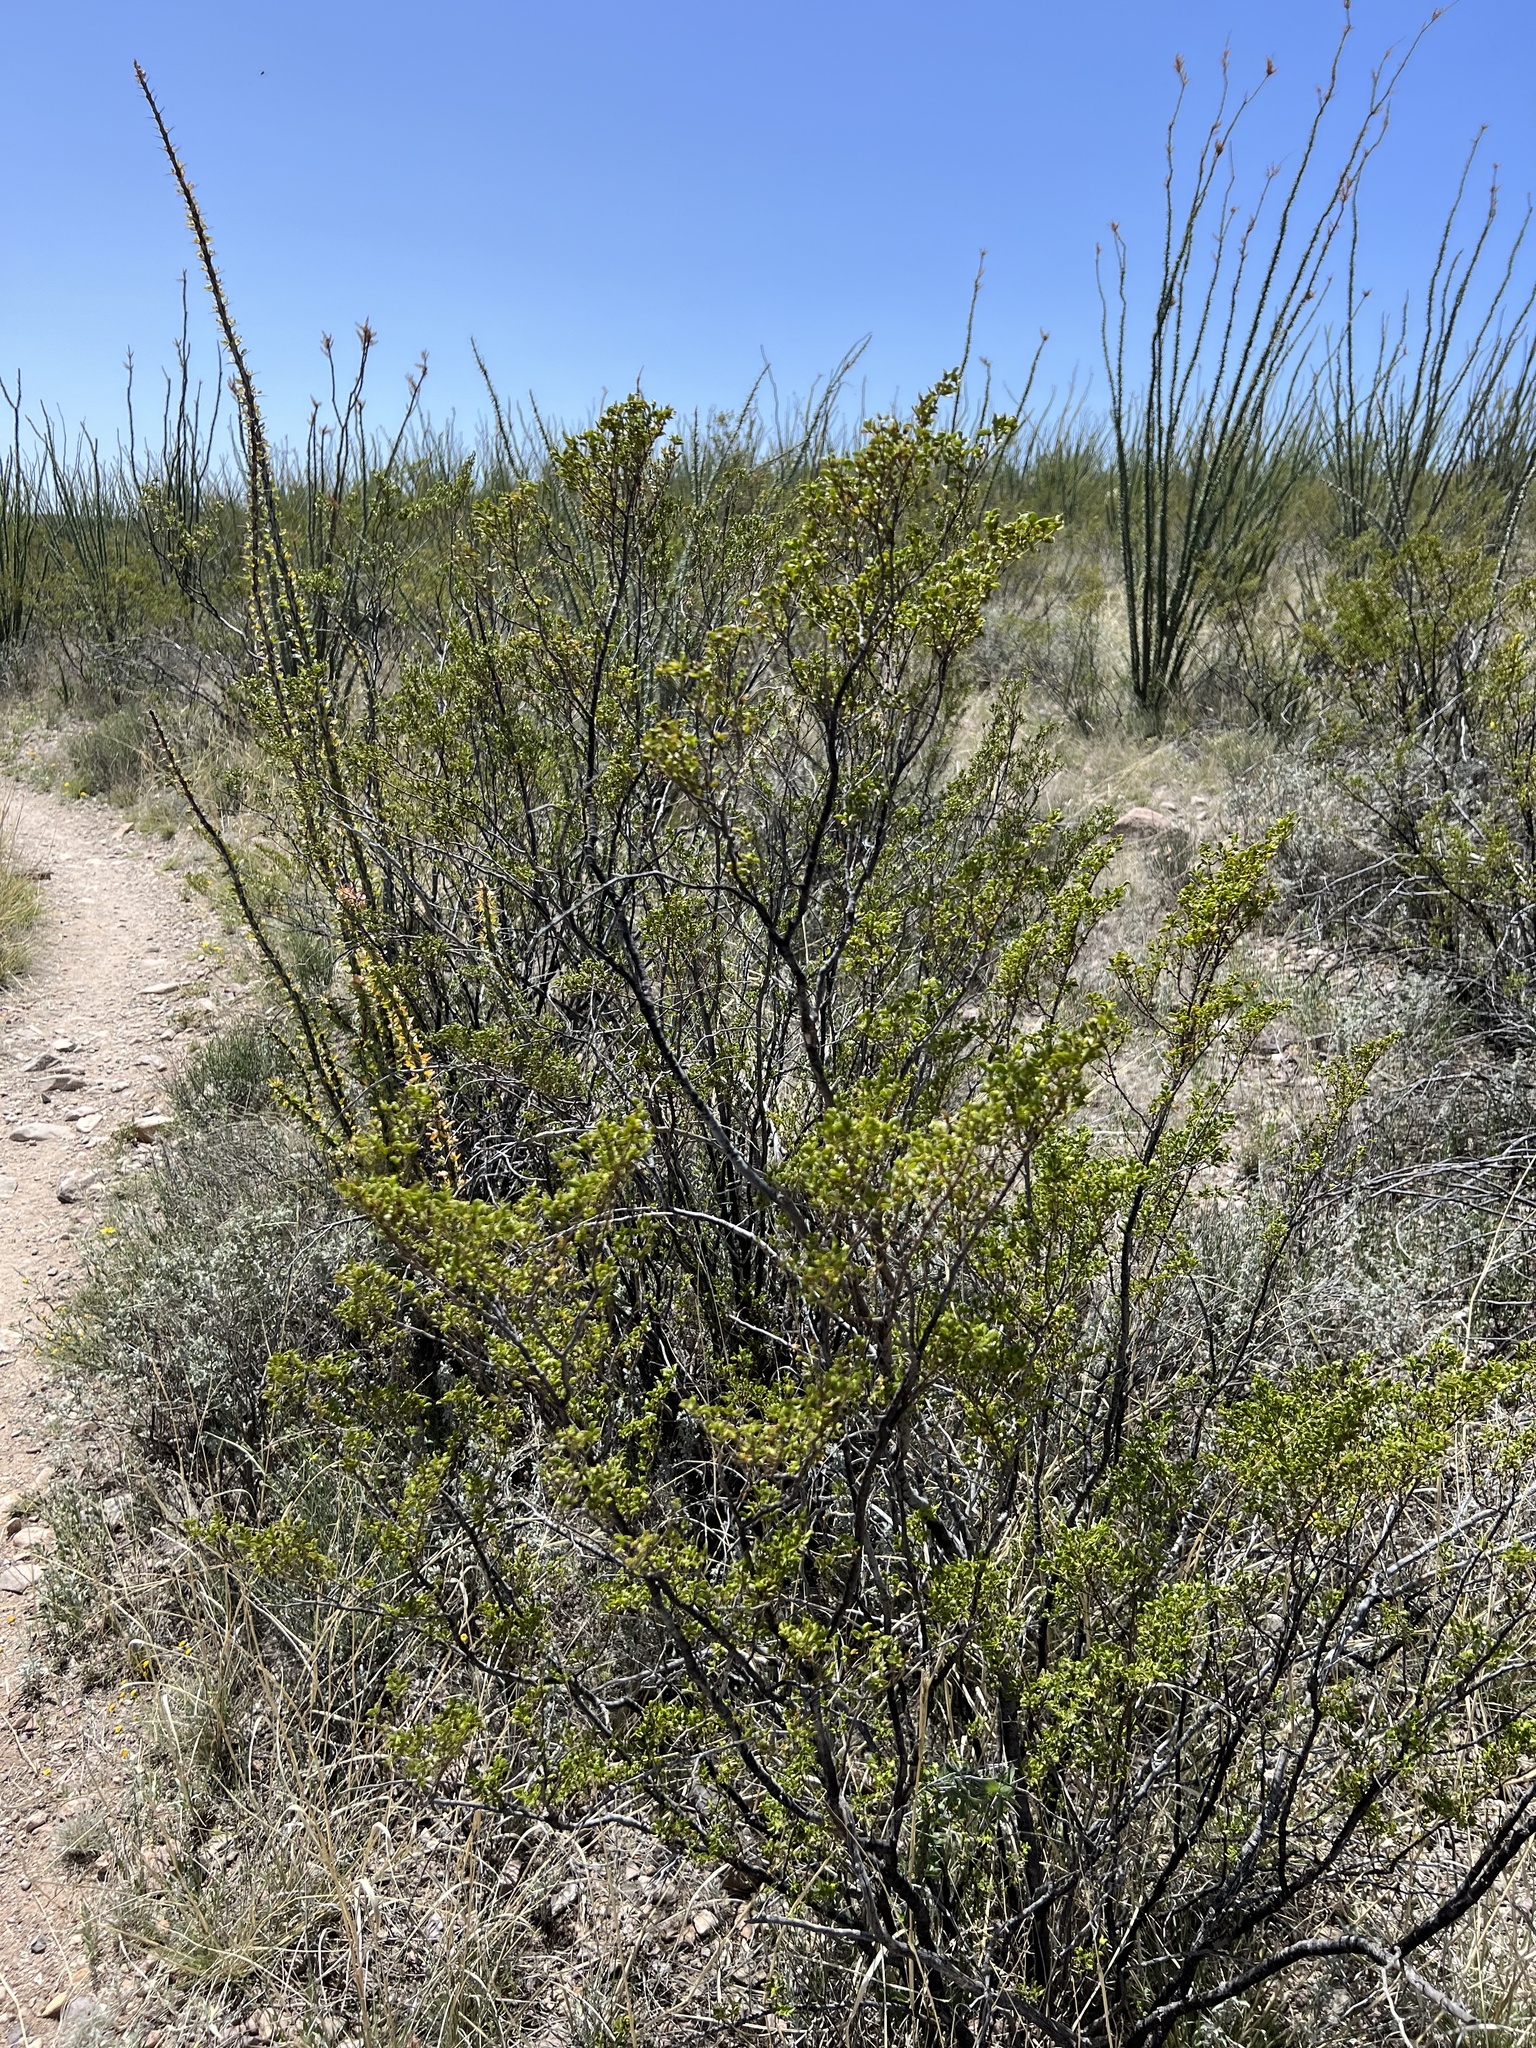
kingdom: Plantae
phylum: Tracheophyta
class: Magnoliopsida
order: Zygophyllales
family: Zygophyllaceae
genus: Larrea
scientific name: Larrea tridentata
